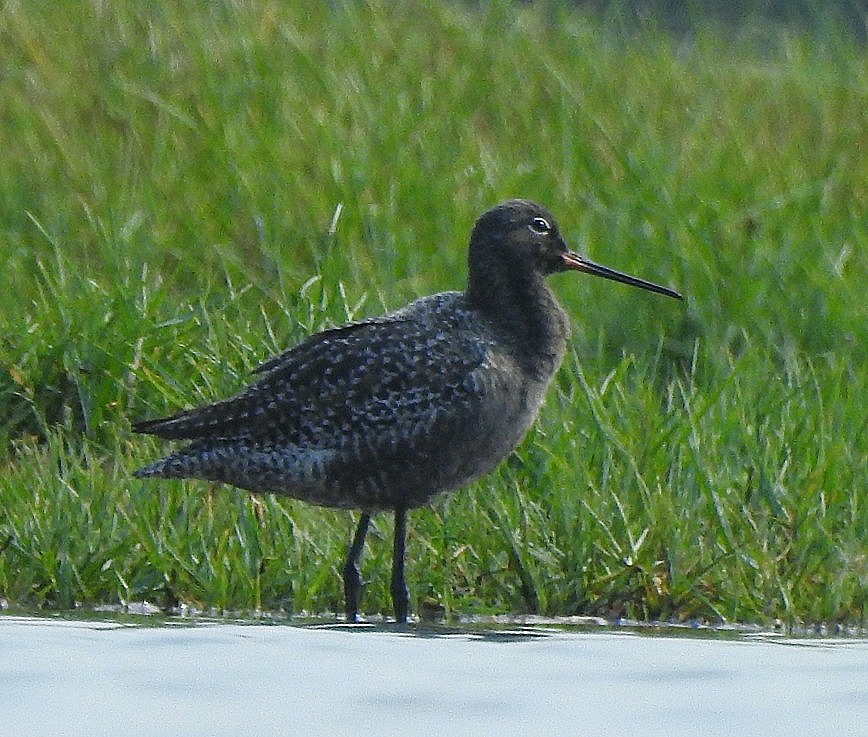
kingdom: Animalia
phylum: Chordata
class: Aves
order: Charadriiformes
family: Scolopacidae
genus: Tringa
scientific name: Tringa erythropus
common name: Spotted redshank
